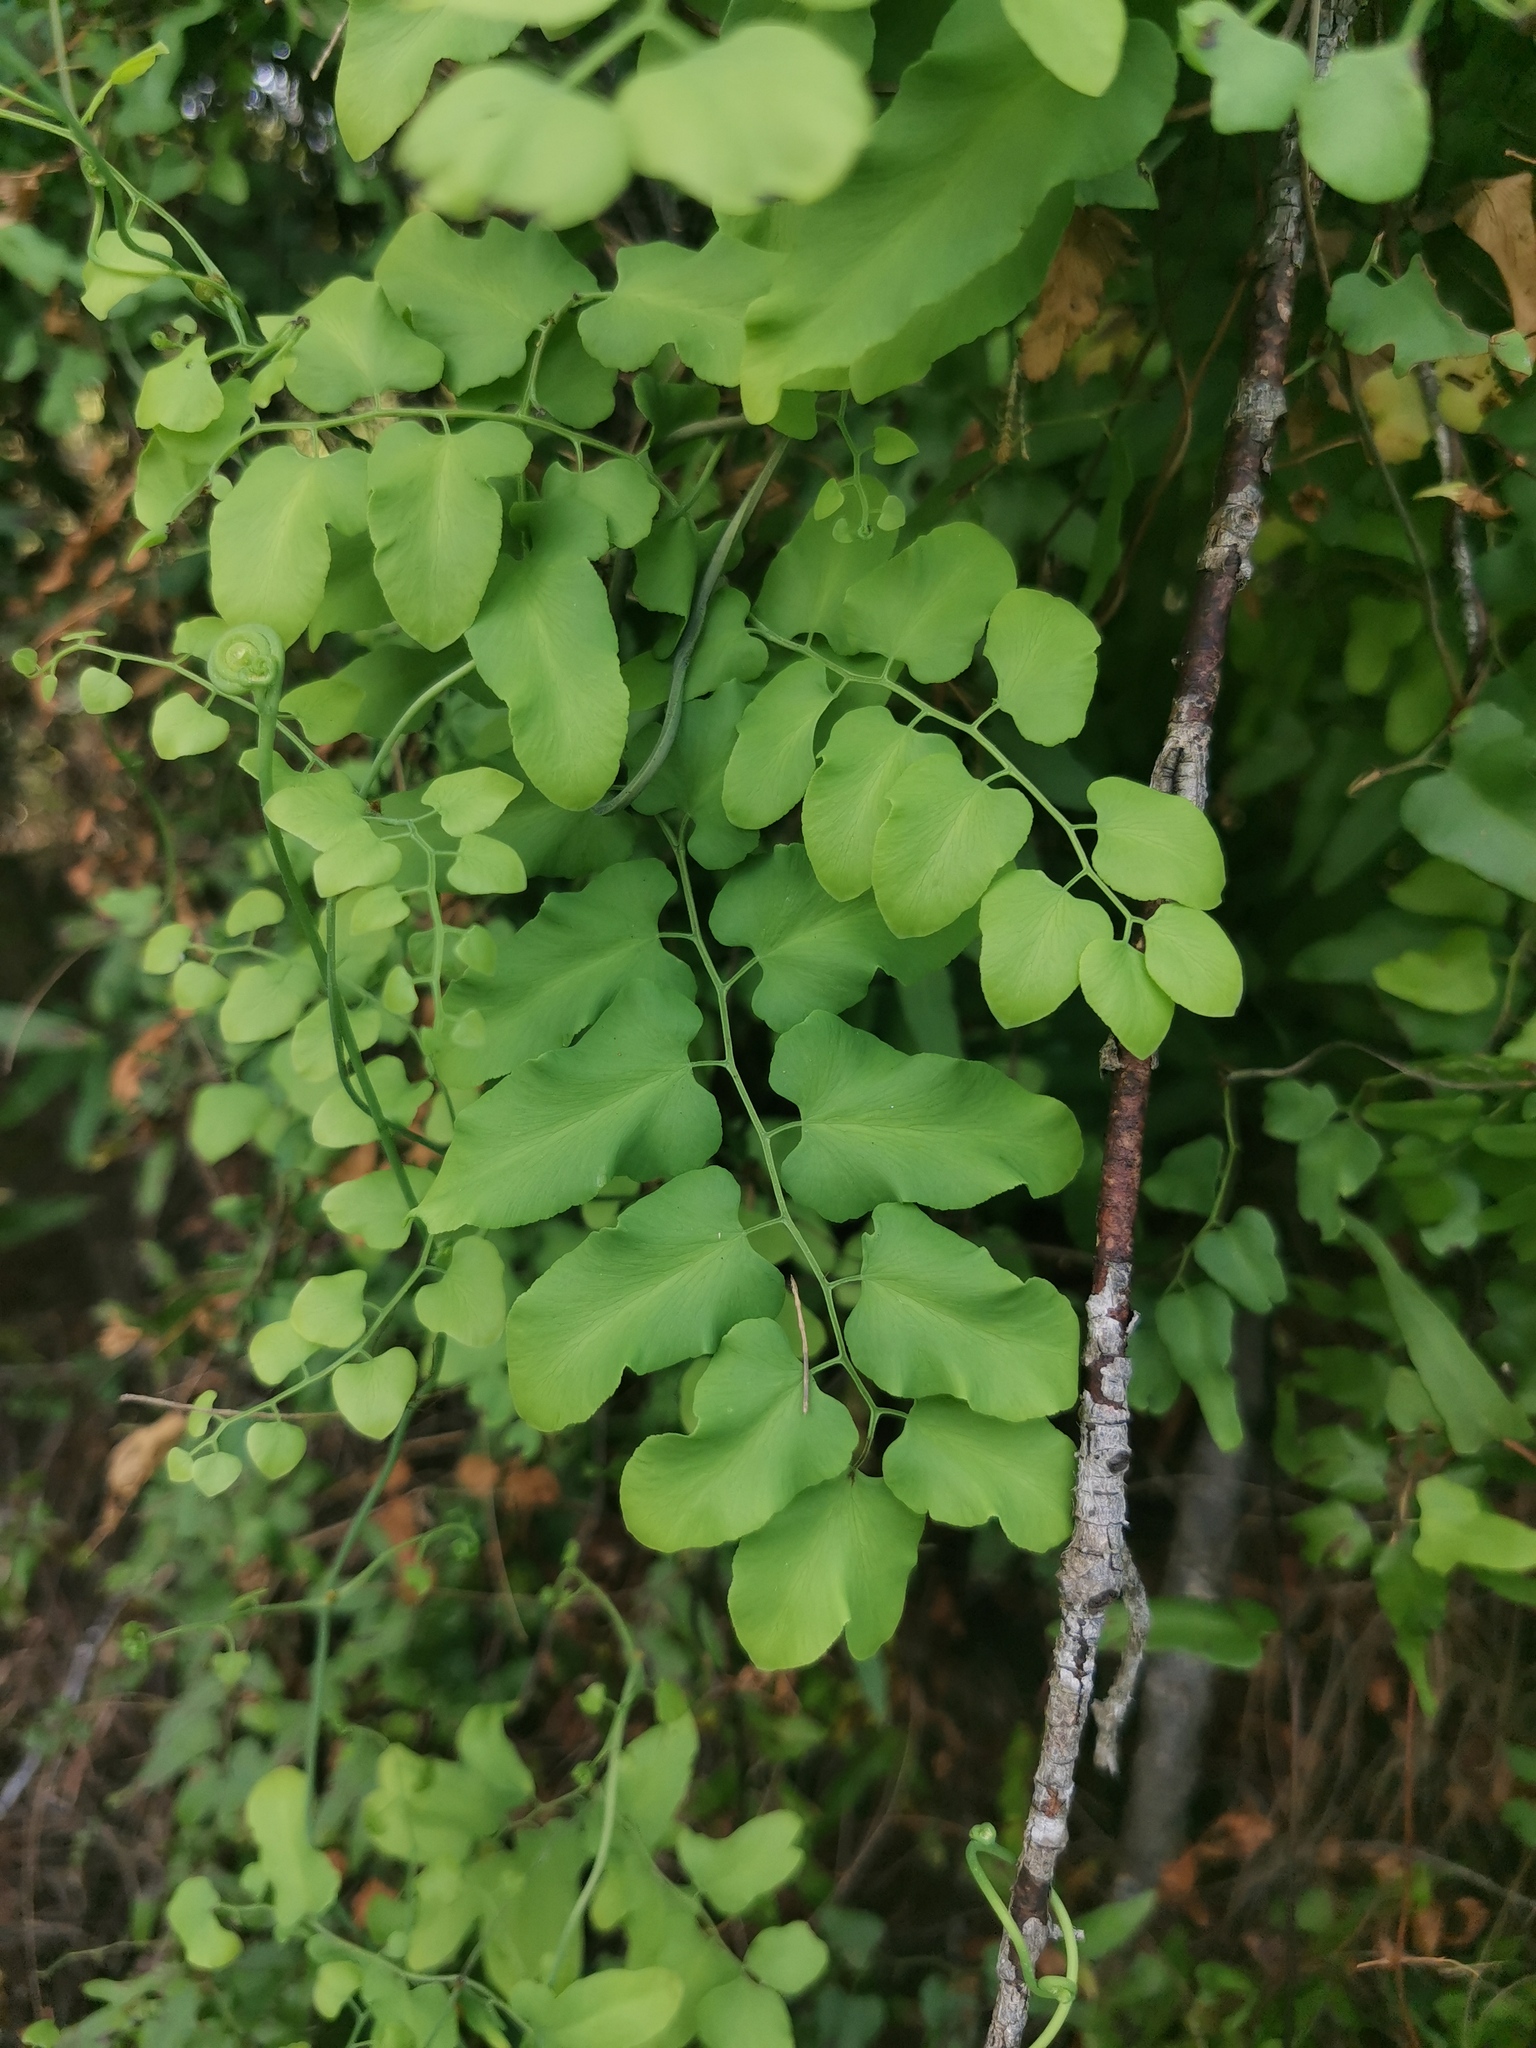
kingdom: Plantae
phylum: Tracheophyta
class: Polypodiopsida
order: Schizaeales
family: Lygodiaceae
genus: Lygodium
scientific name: Lygodium microphyllum
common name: Small-leaf climbing fern
